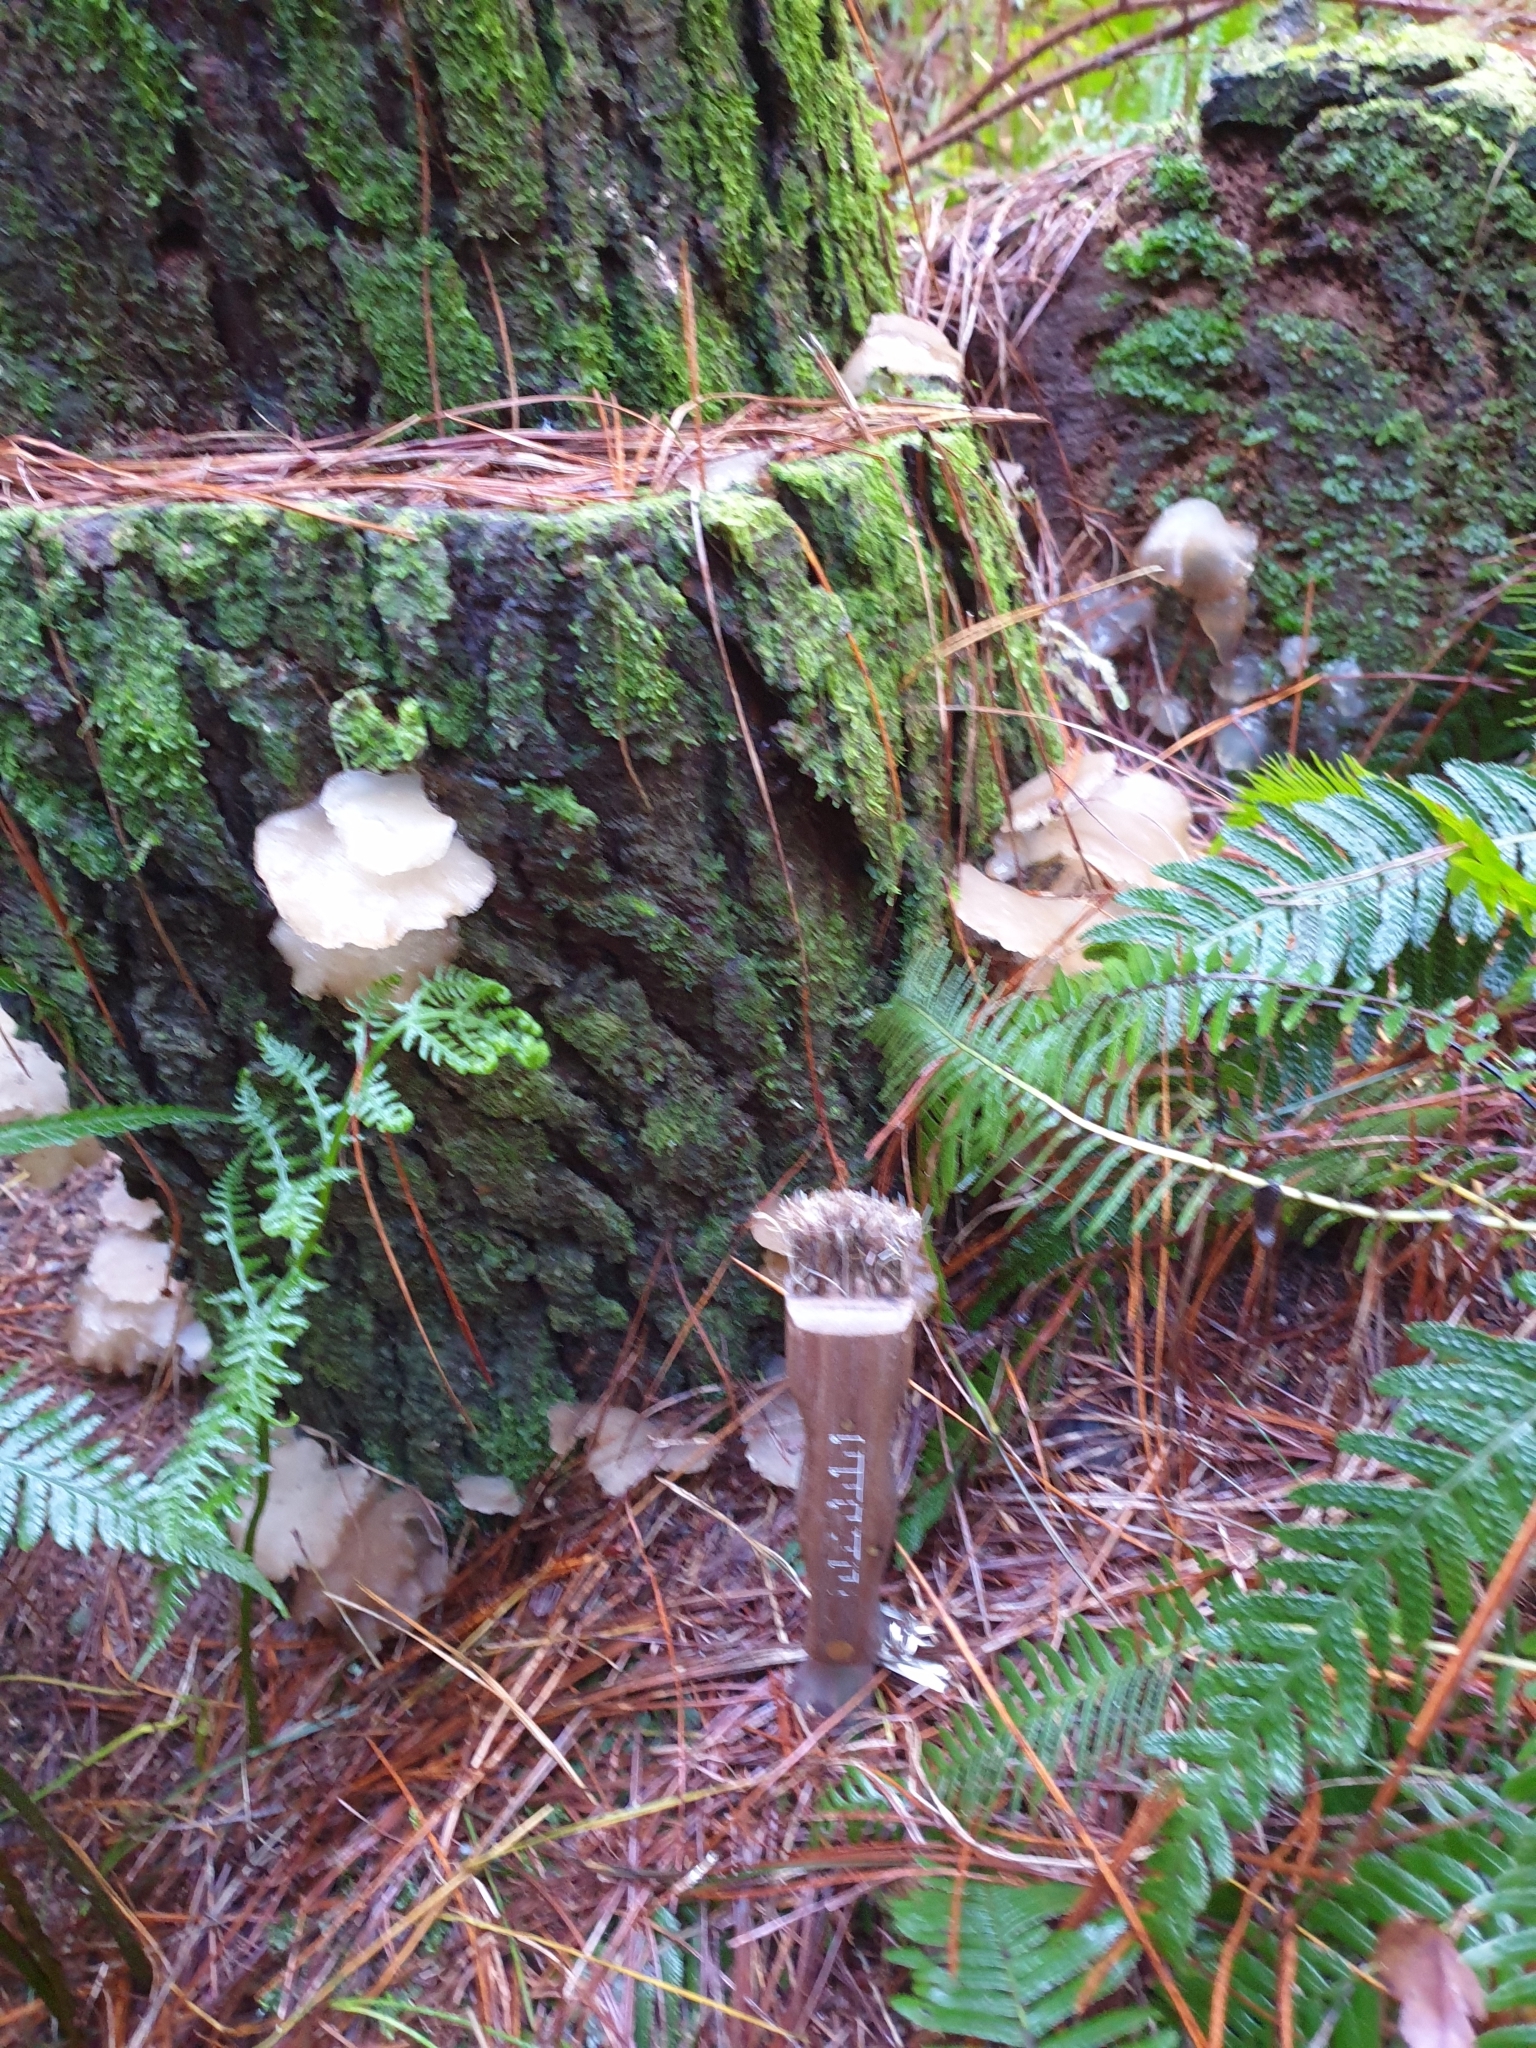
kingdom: Fungi
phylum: Basidiomycota
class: Agaricomycetes
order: Auriculariales
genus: Pseudohydnum
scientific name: Pseudohydnum orbiculare
